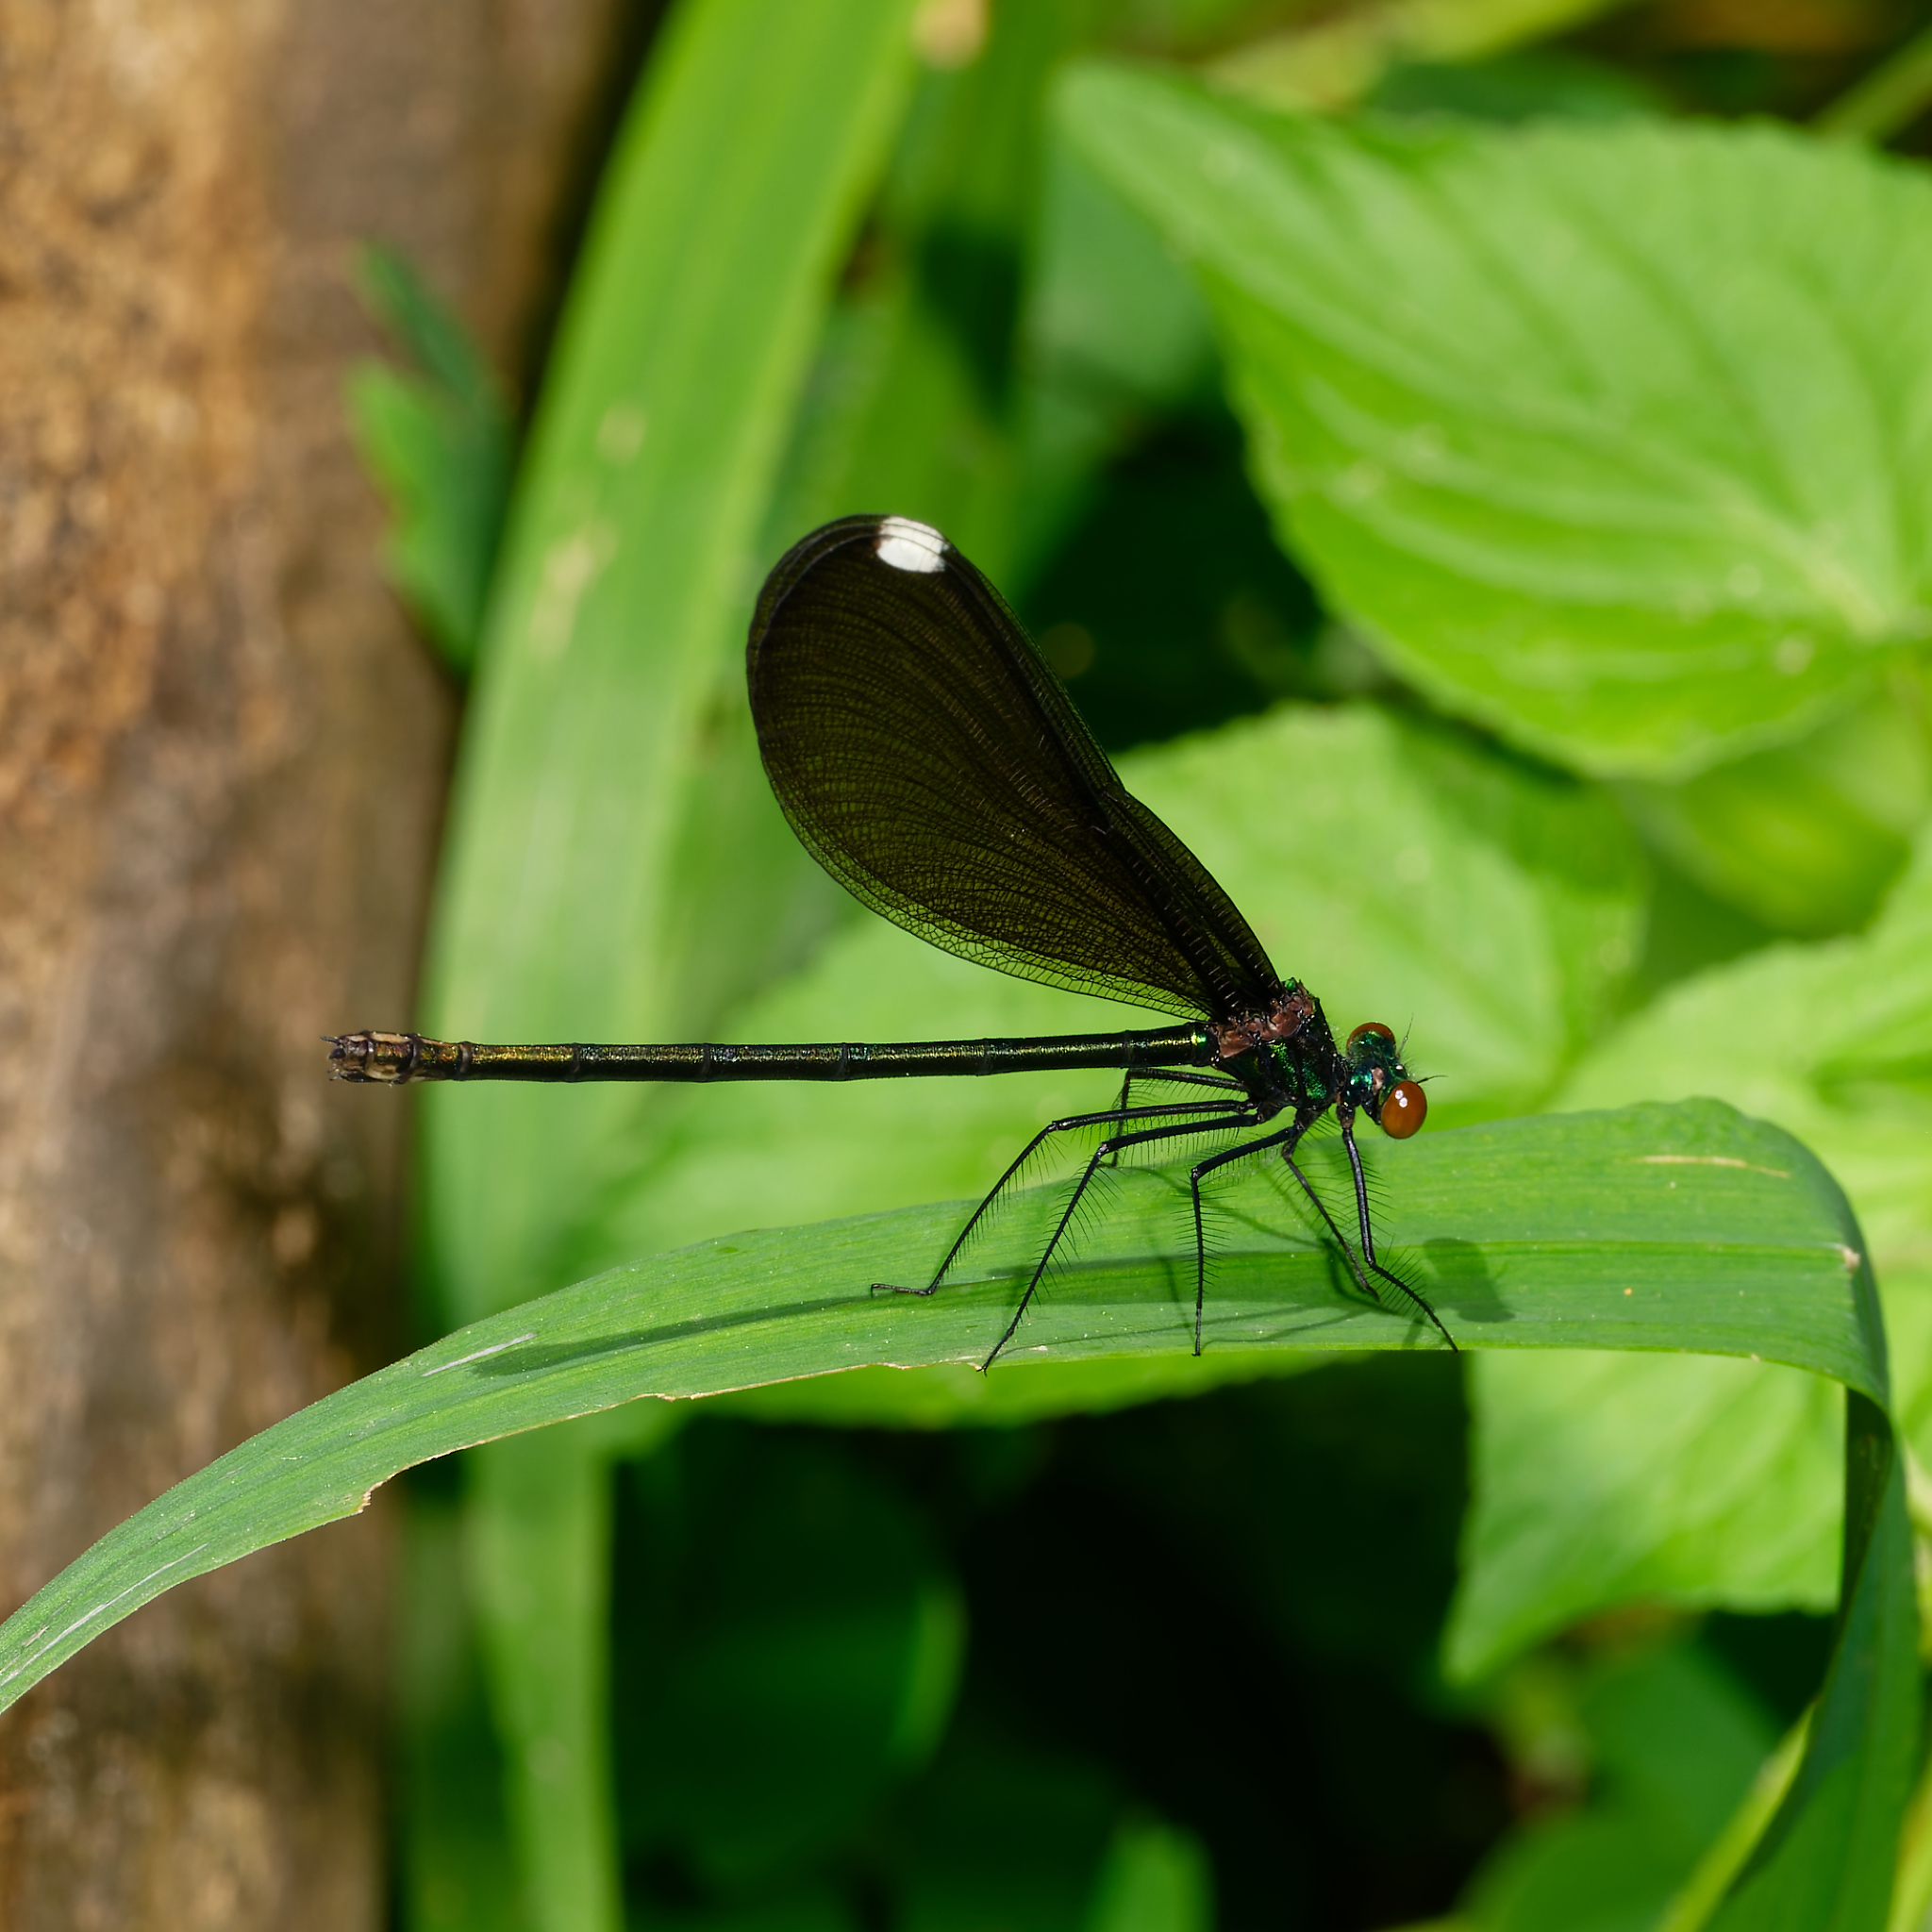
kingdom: Animalia
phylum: Arthropoda
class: Insecta
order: Odonata
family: Calopterygidae
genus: Calopteryx
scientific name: Calopteryx maculata
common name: Ebony jewelwing
